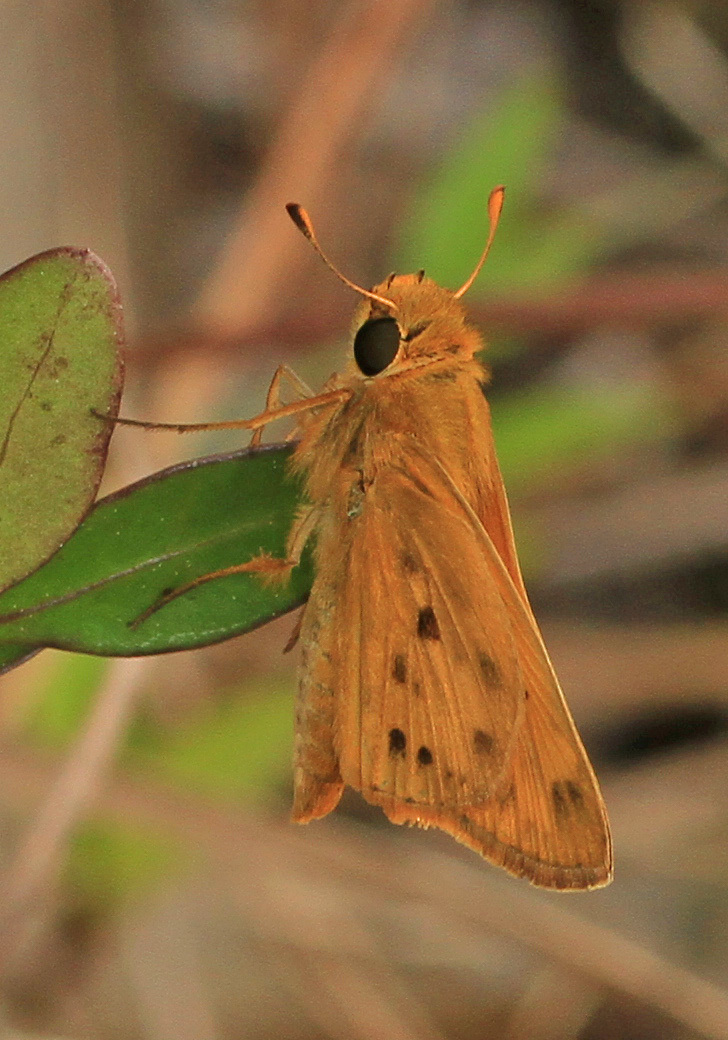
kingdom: Animalia
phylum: Arthropoda
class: Insecta
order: Lepidoptera
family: Hesperiidae
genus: Hylephila
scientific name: Hylephila phyleus
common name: Fiery skipper
